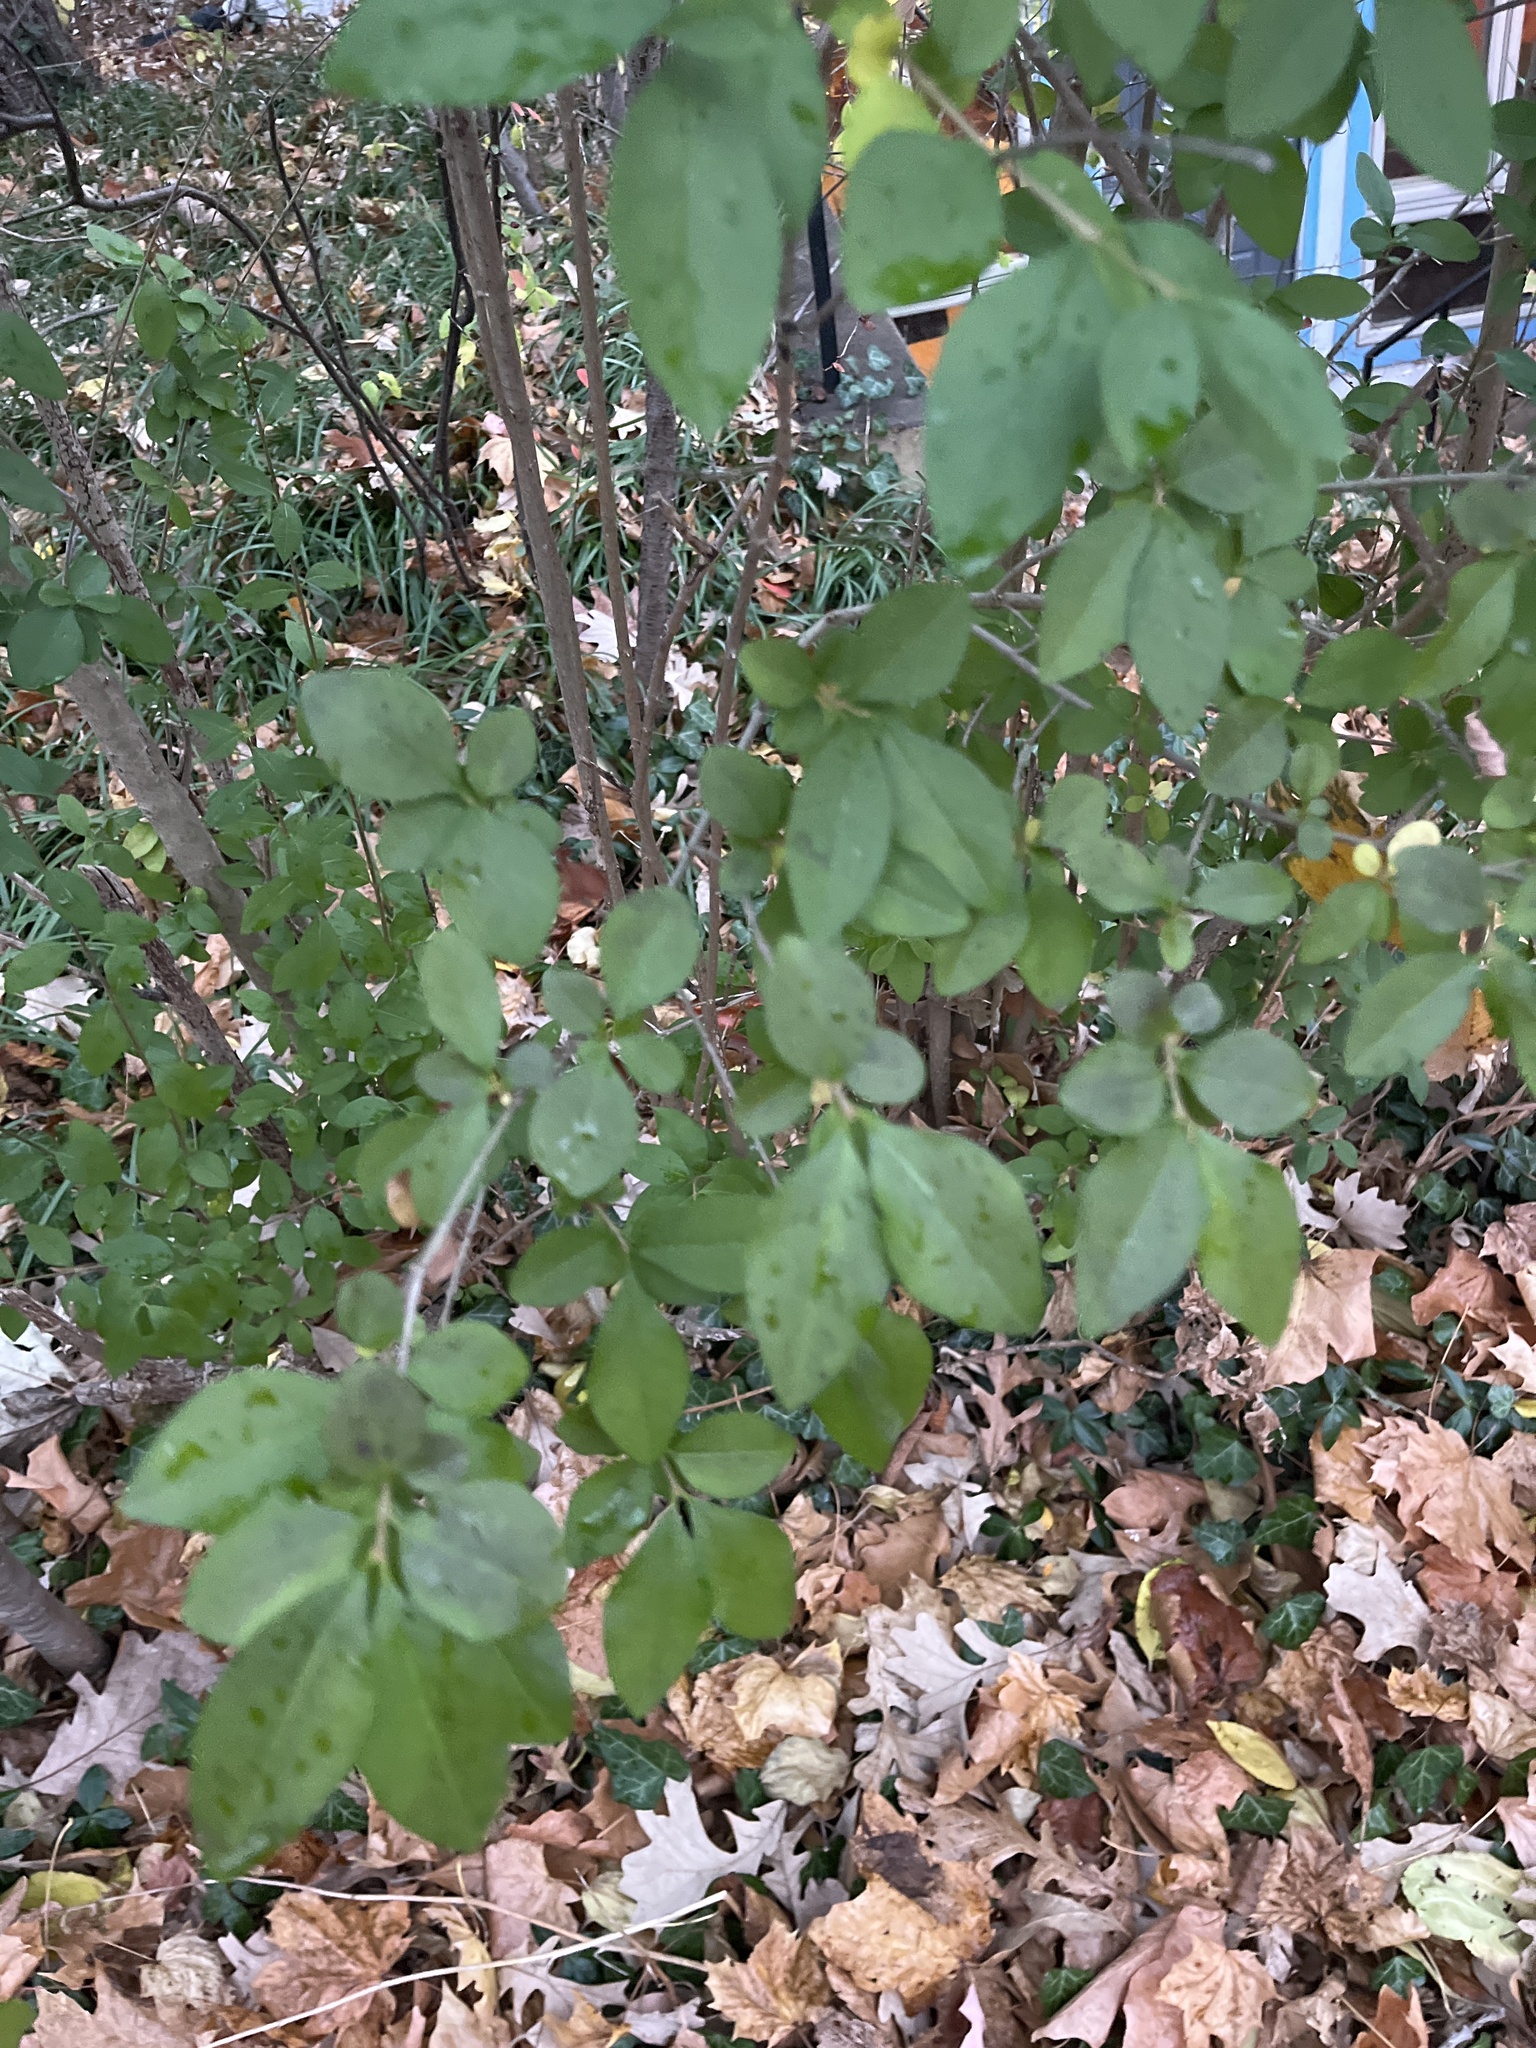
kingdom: Plantae
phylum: Tracheophyta
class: Magnoliopsida
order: Lamiales
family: Oleaceae
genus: Ligustrum
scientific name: Ligustrum ovalifolium
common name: California privet
